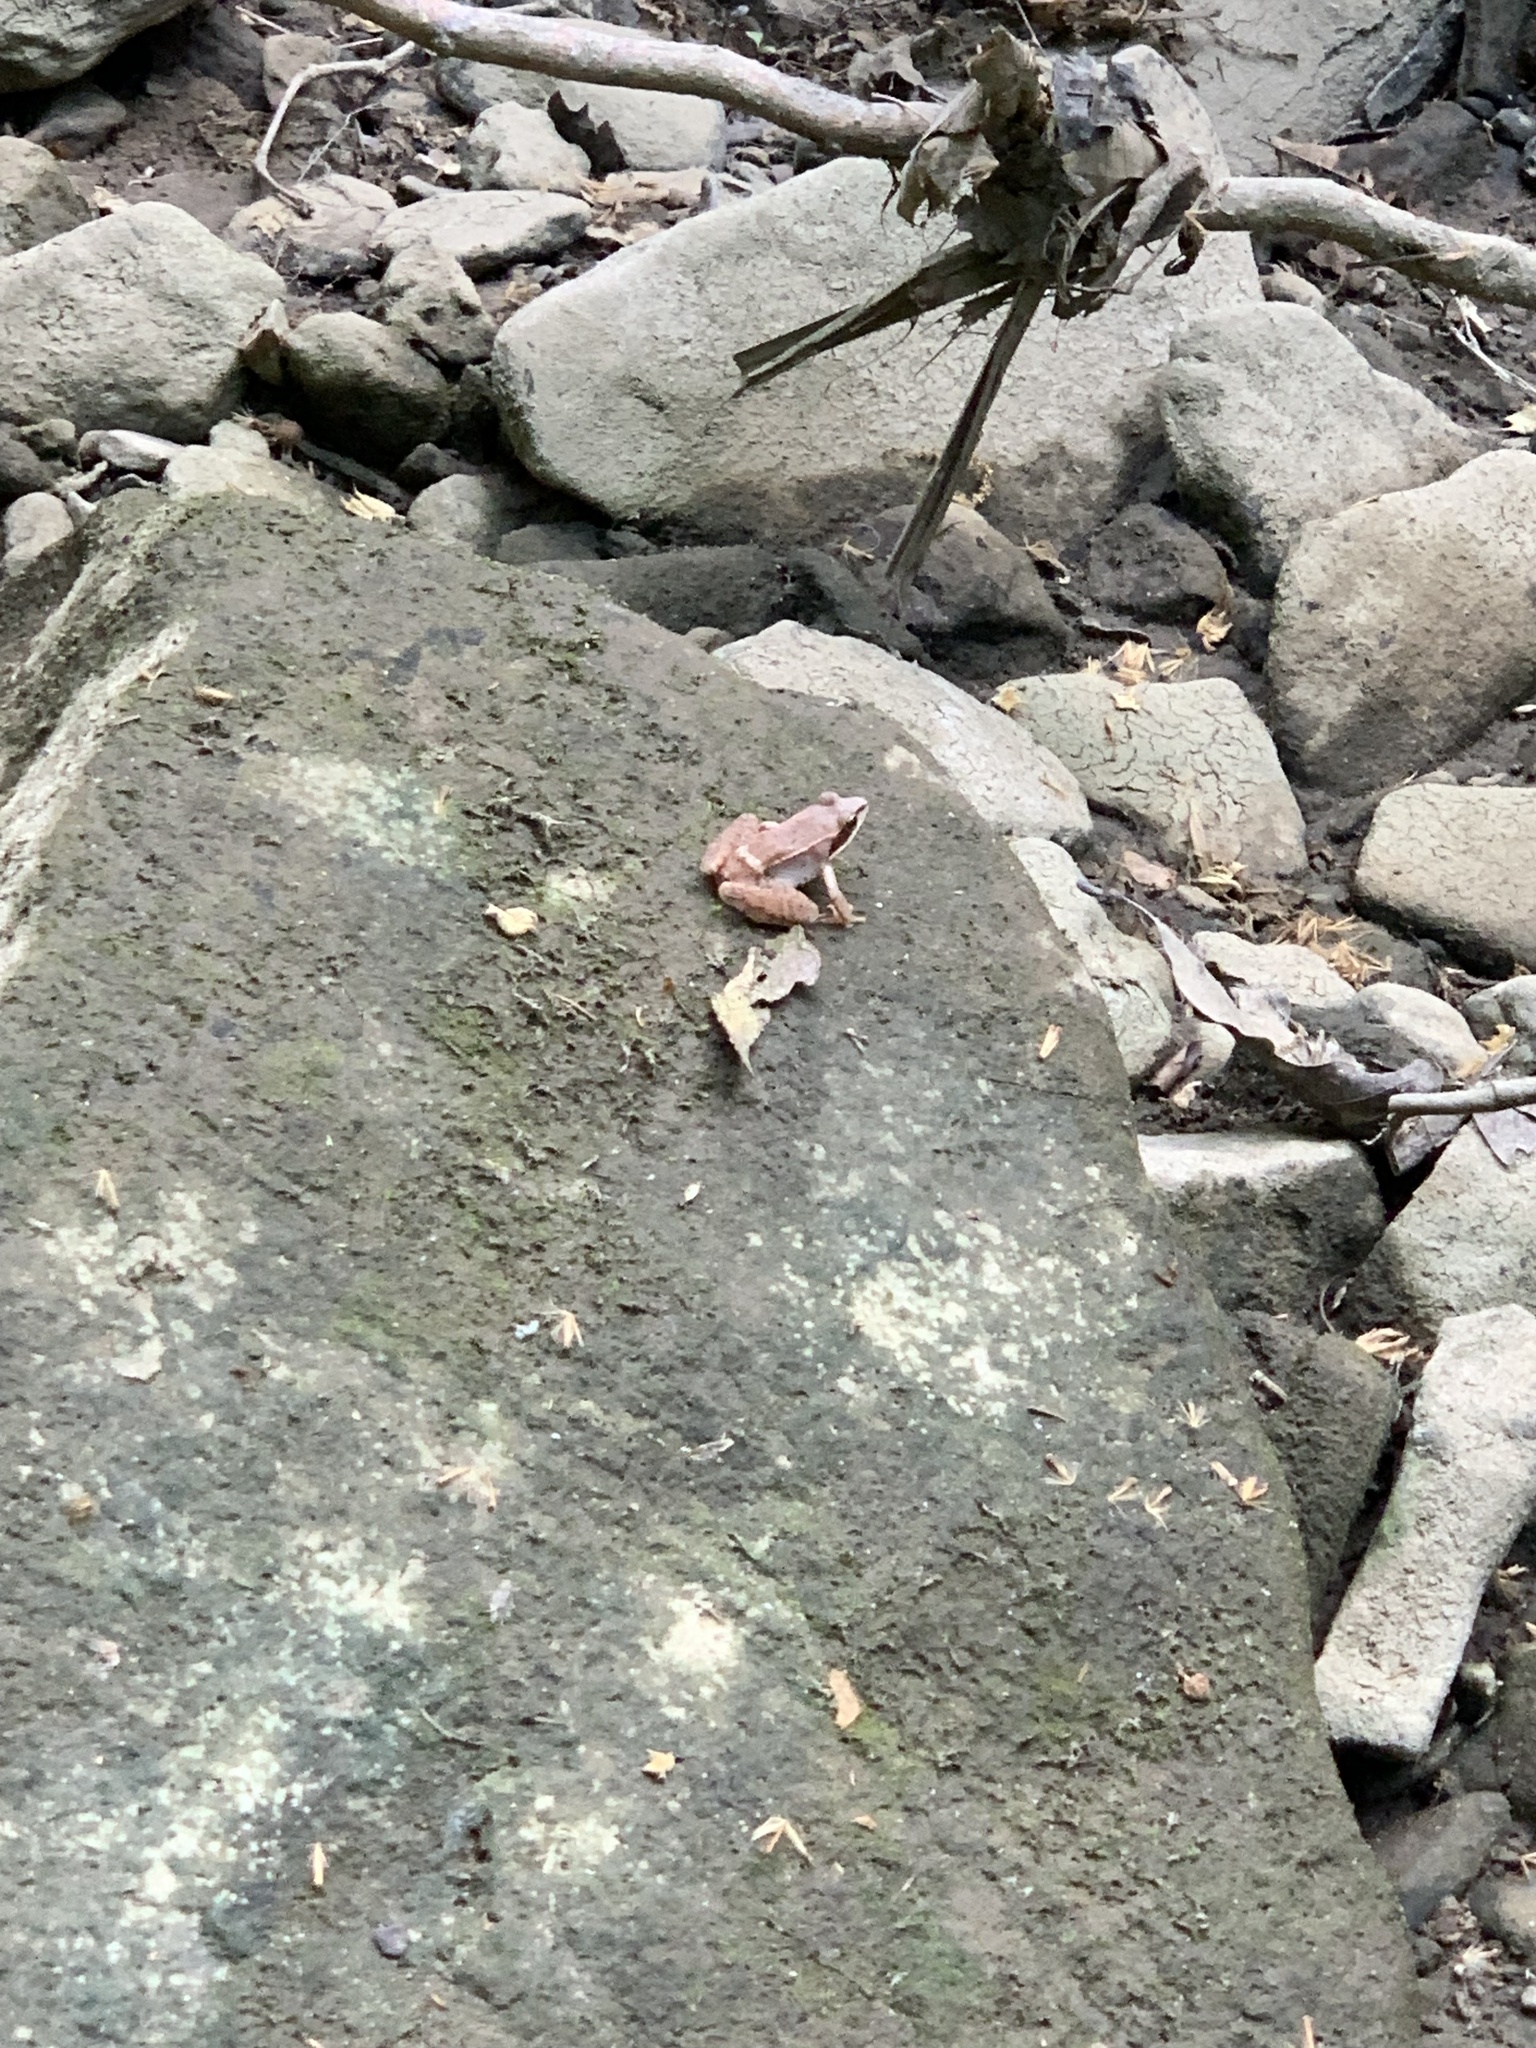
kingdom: Animalia
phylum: Chordata
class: Amphibia
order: Anura
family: Ranidae
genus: Lithobates
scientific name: Lithobates sylvaticus
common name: Wood frog
